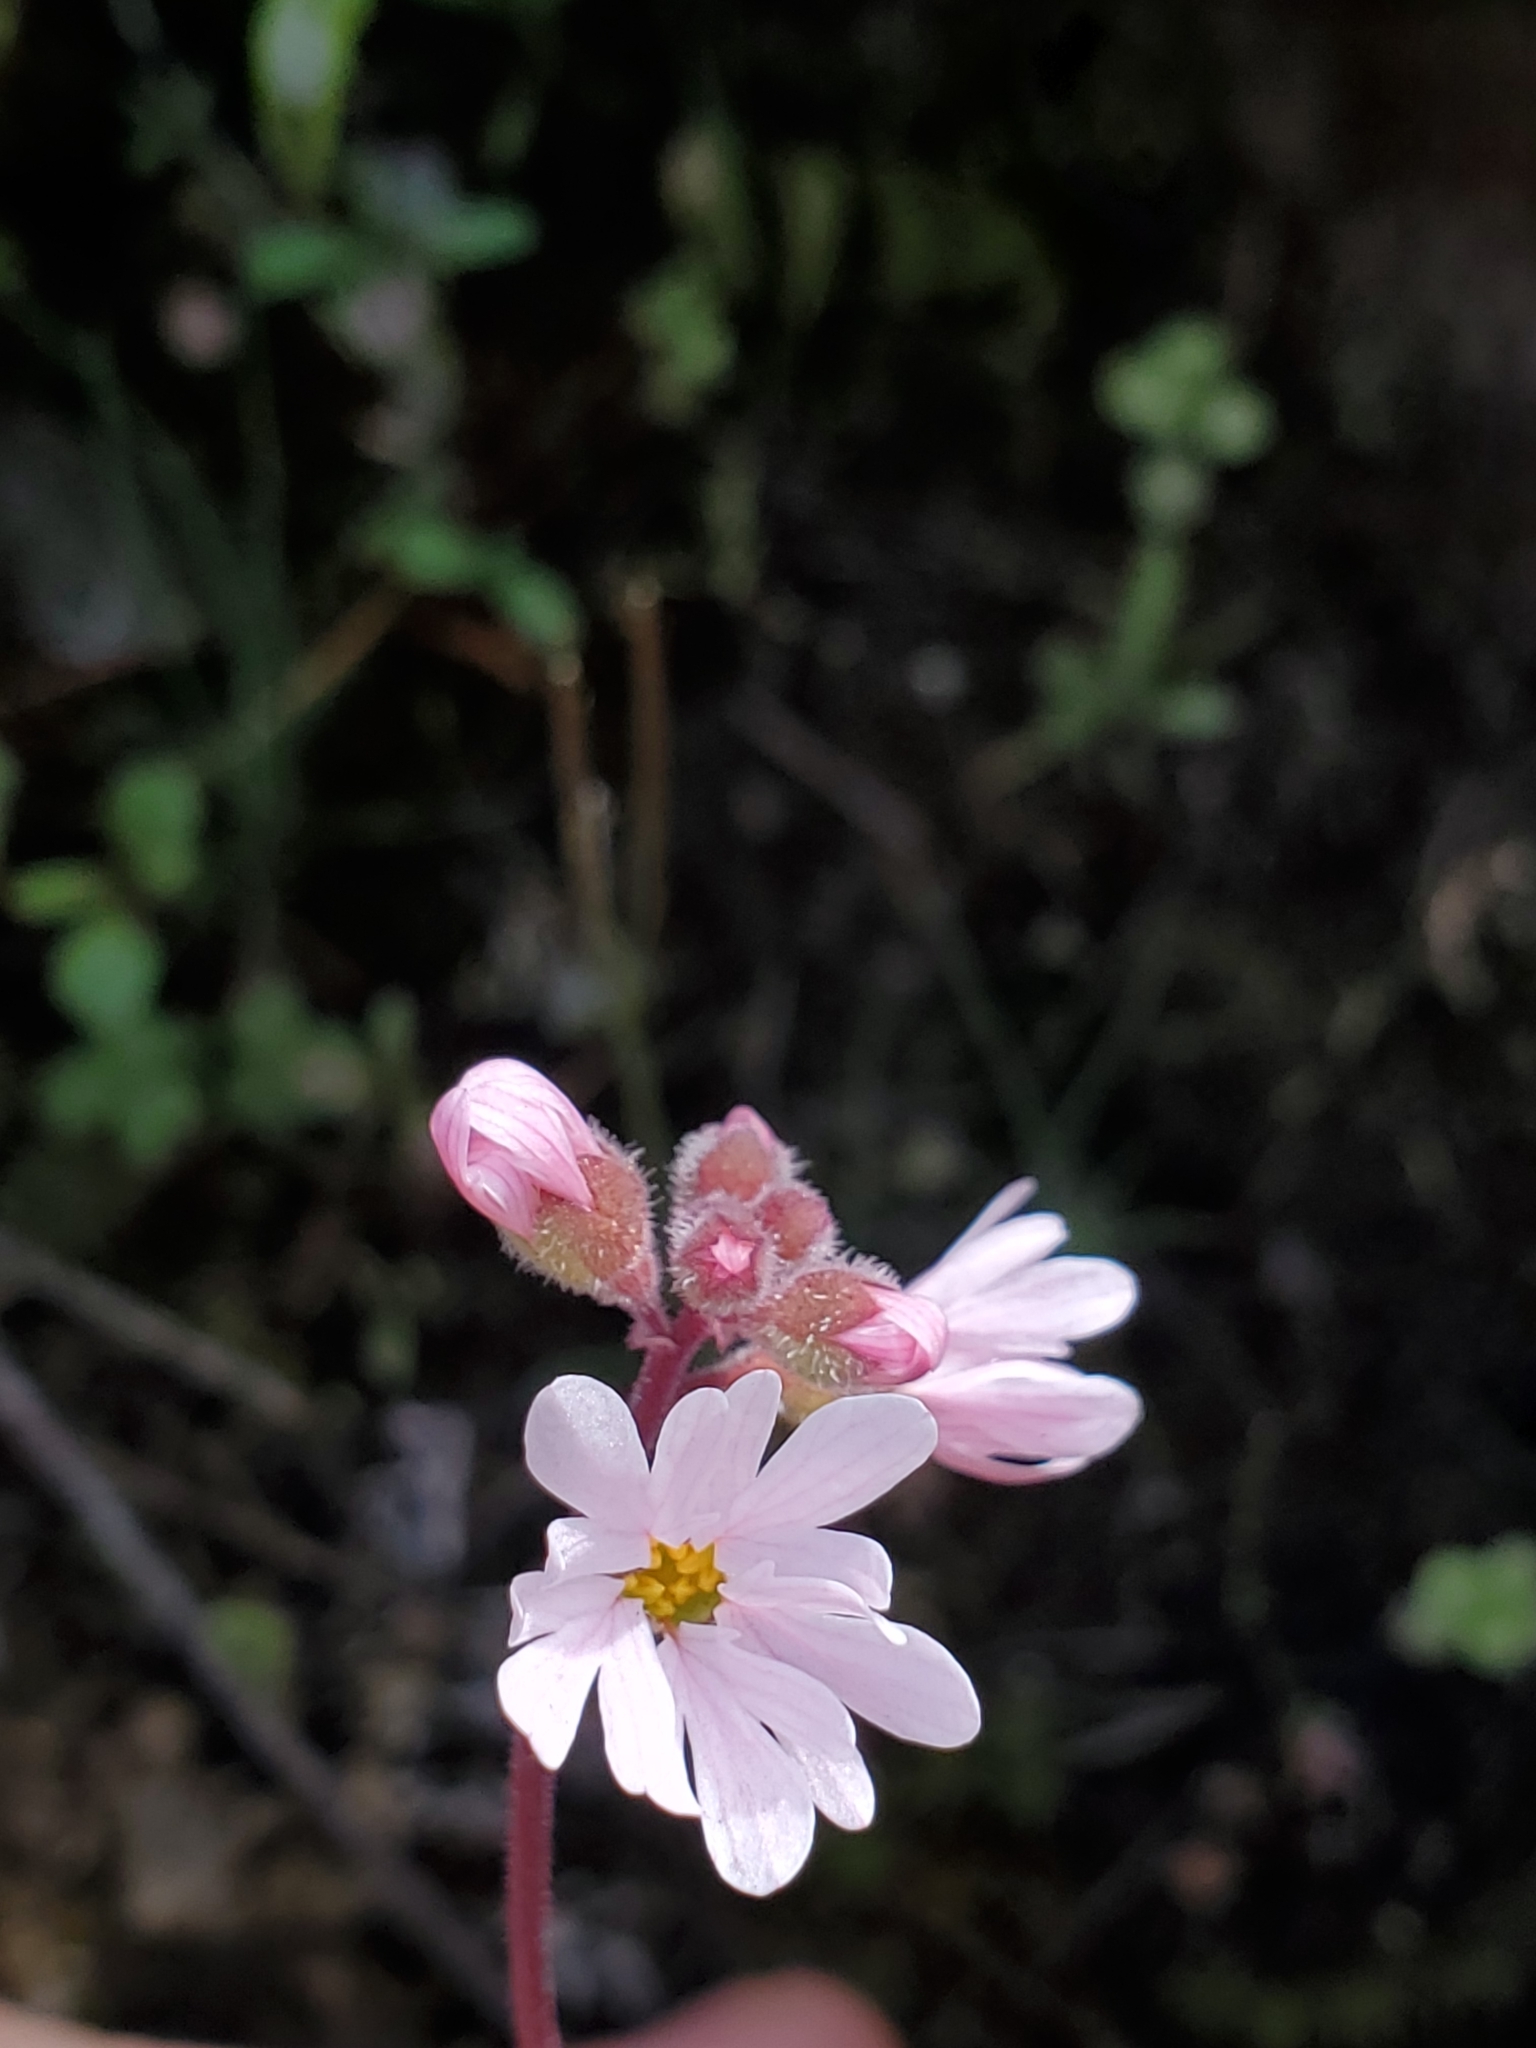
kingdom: Plantae
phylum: Tracheophyta
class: Magnoliopsida
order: Saxifragales
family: Saxifragaceae
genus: Lithophragma
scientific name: Lithophragma parviflorum
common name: Small-flowered fringe-cup
